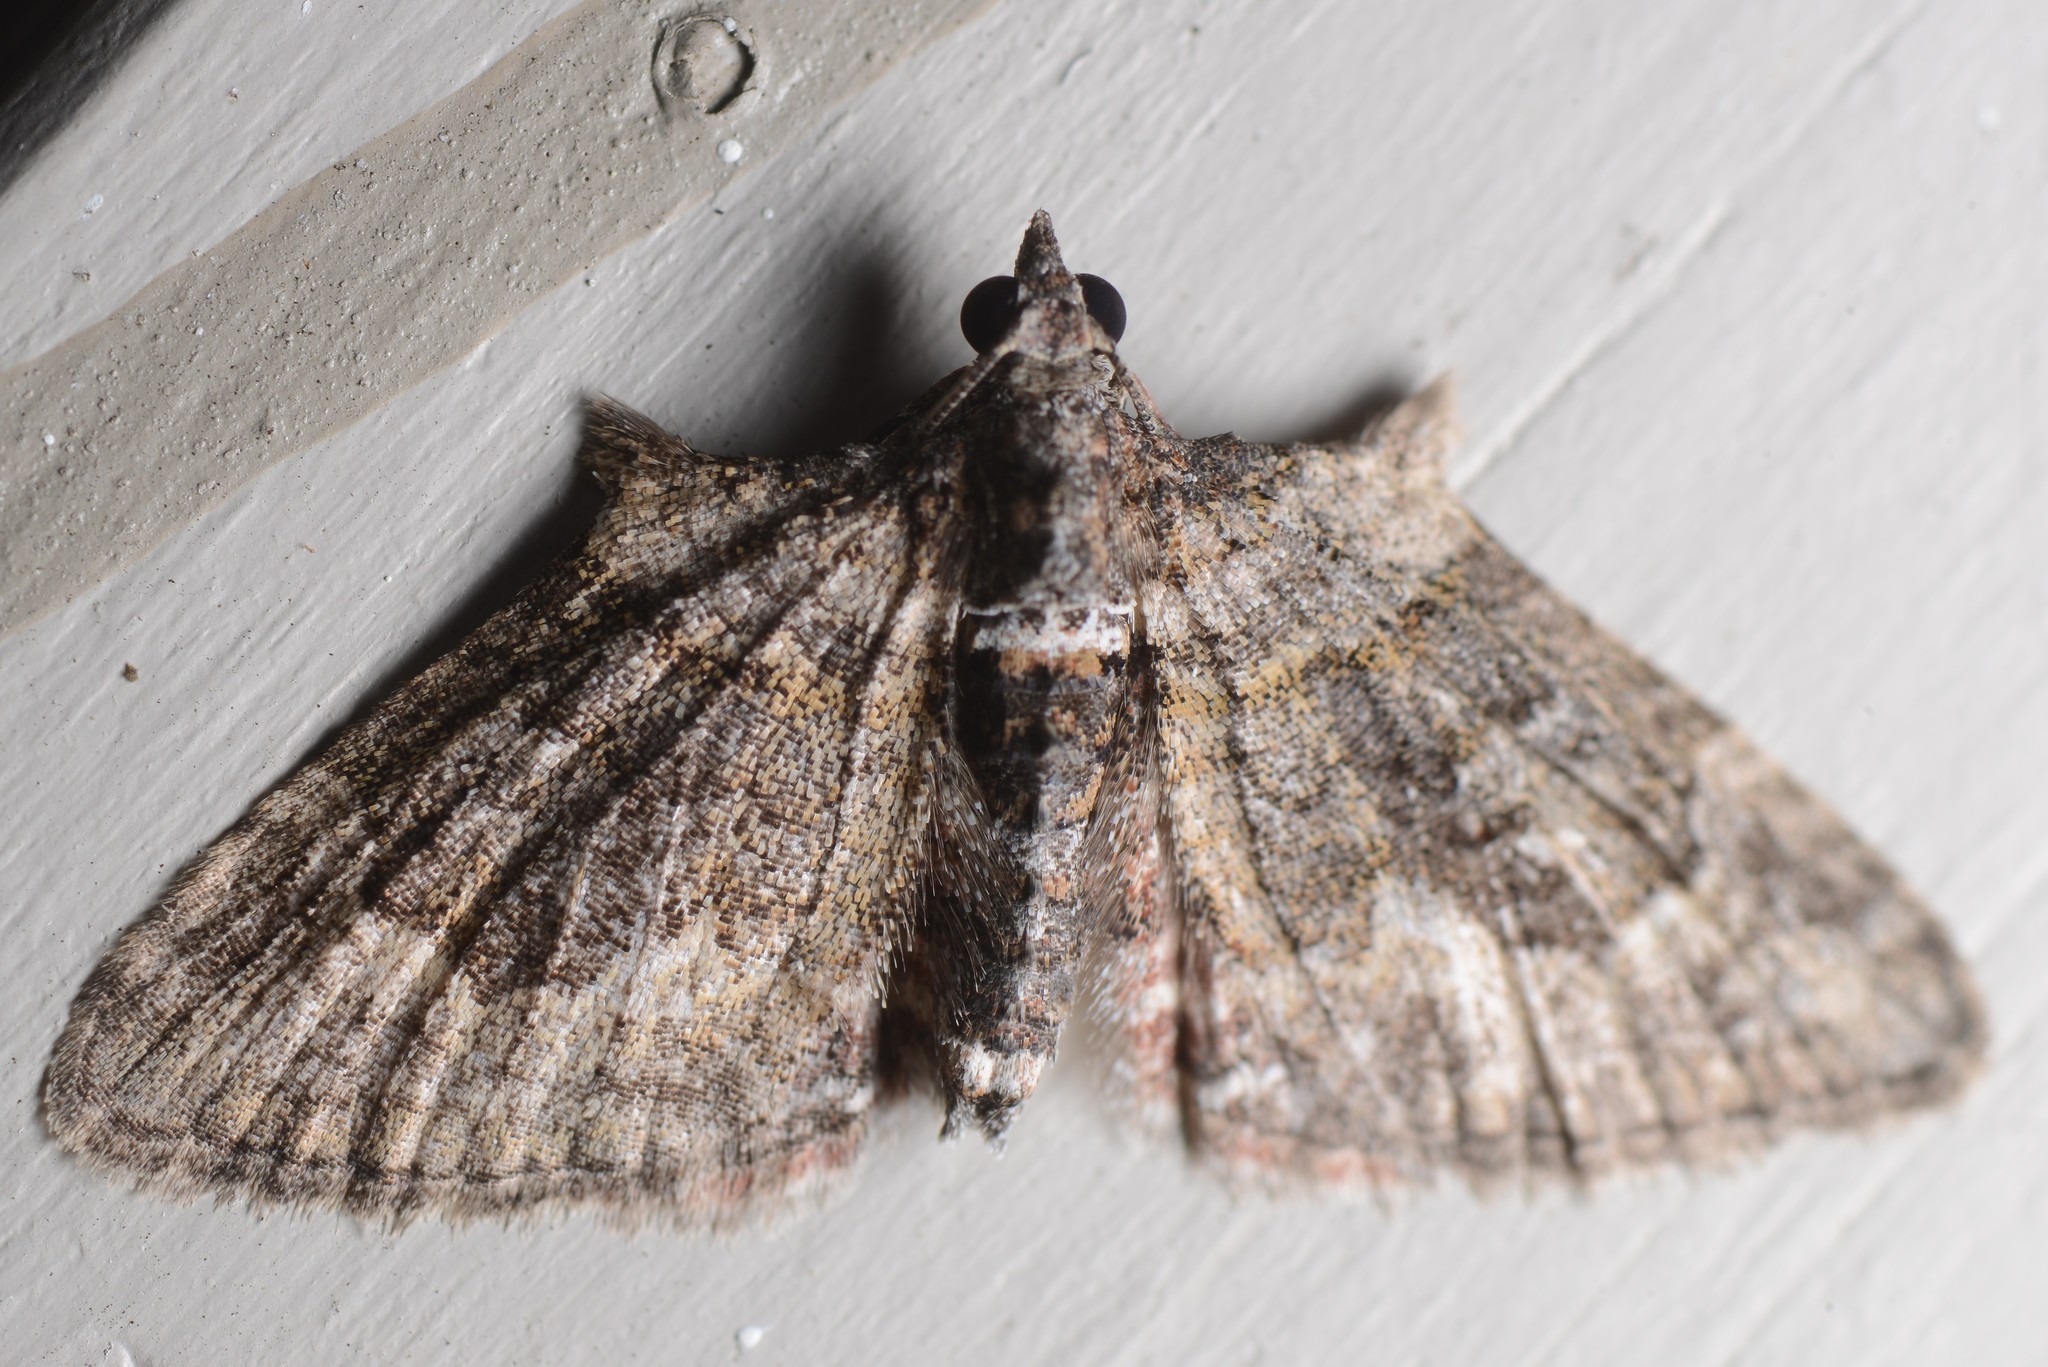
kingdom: Animalia
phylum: Arthropoda
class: Insecta
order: Lepidoptera
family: Geometridae
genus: Phrissogonus
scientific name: Phrissogonus laticostata
